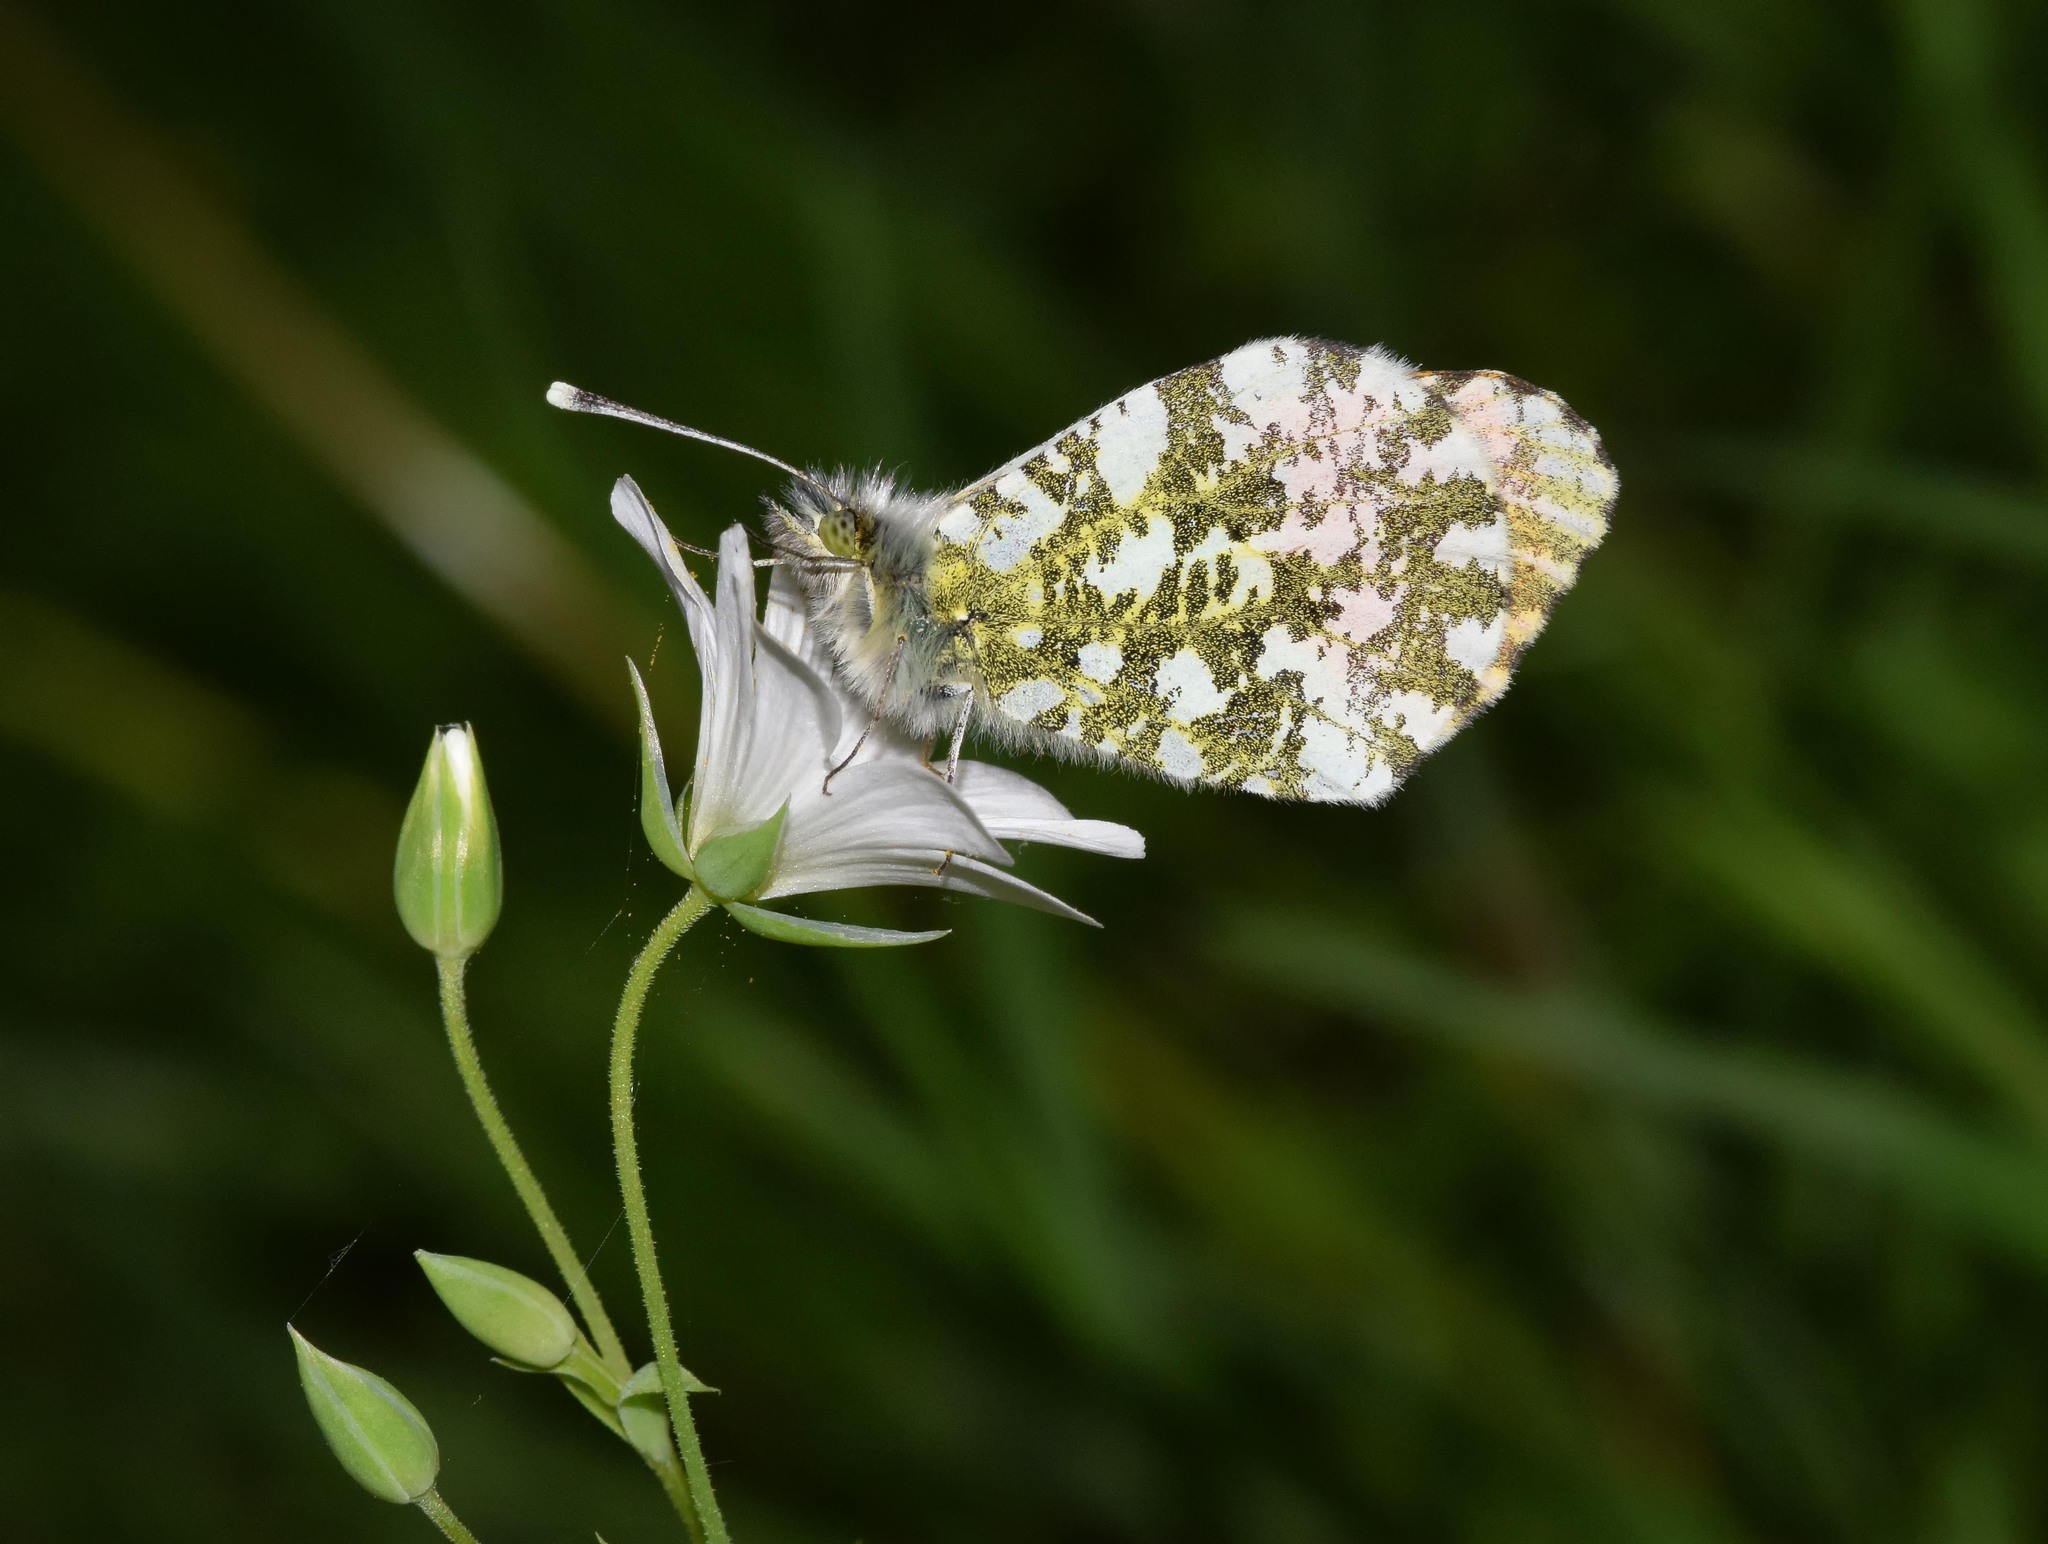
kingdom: Animalia
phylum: Arthropoda
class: Insecta
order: Lepidoptera
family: Pieridae
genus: Anthocharis
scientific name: Anthocharis cardamines
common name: Orange-tip
